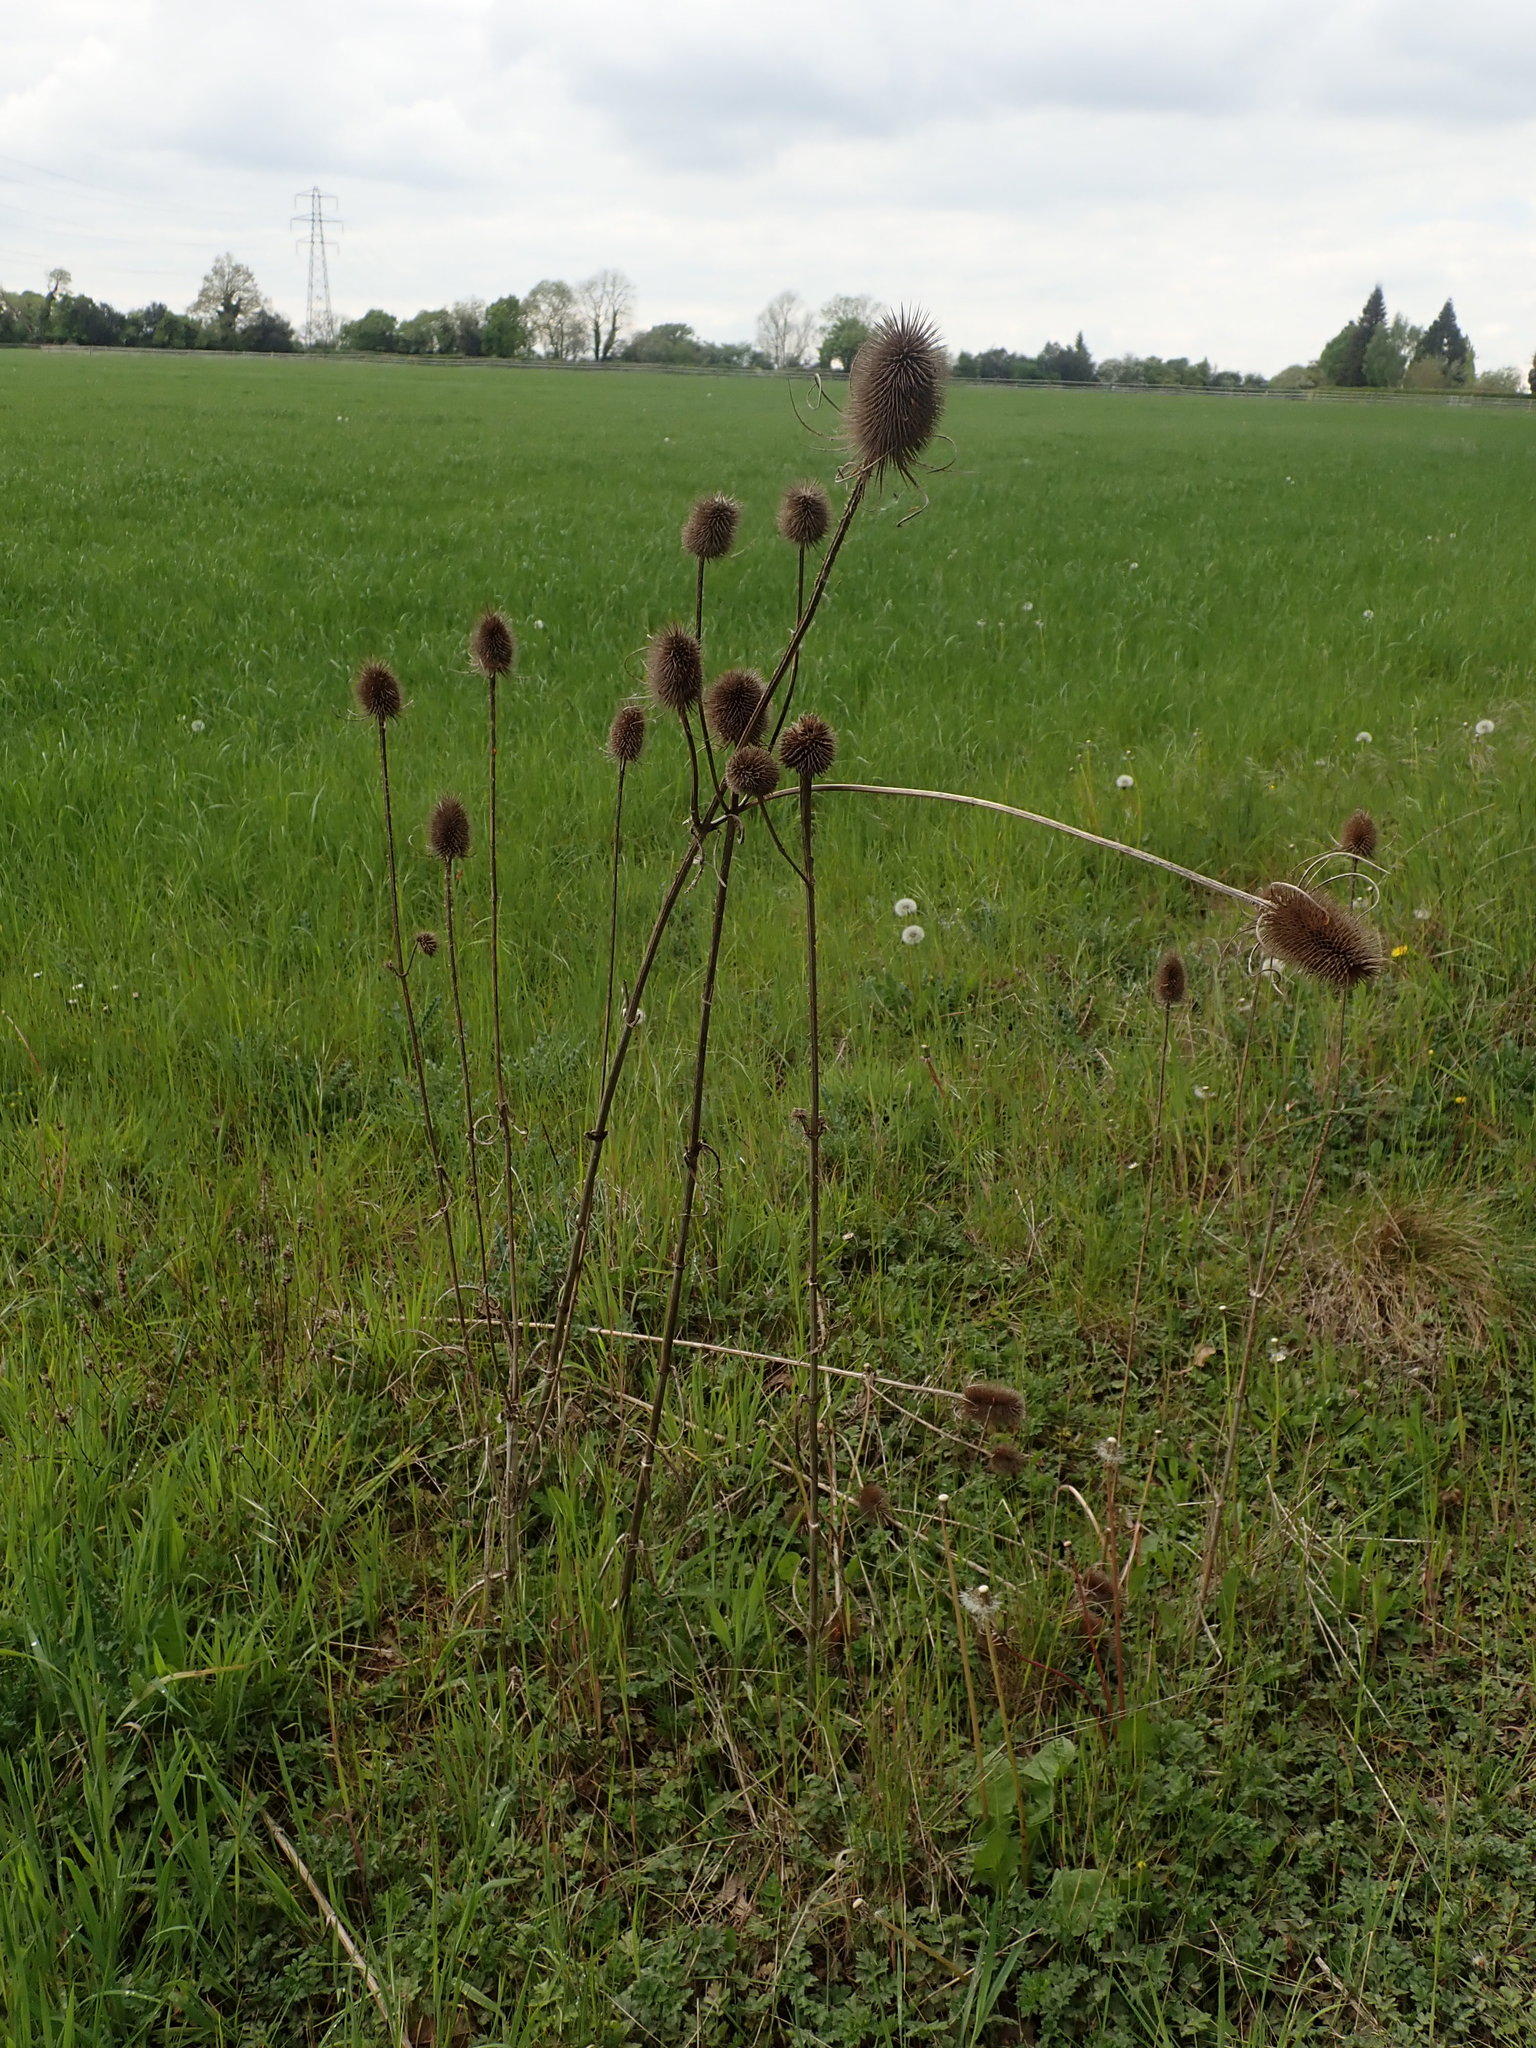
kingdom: Plantae
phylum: Tracheophyta
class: Magnoliopsida
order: Dipsacales
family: Caprifoliaceae
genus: Dipsacus
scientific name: Dipsacus fullonum
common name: Teasel
